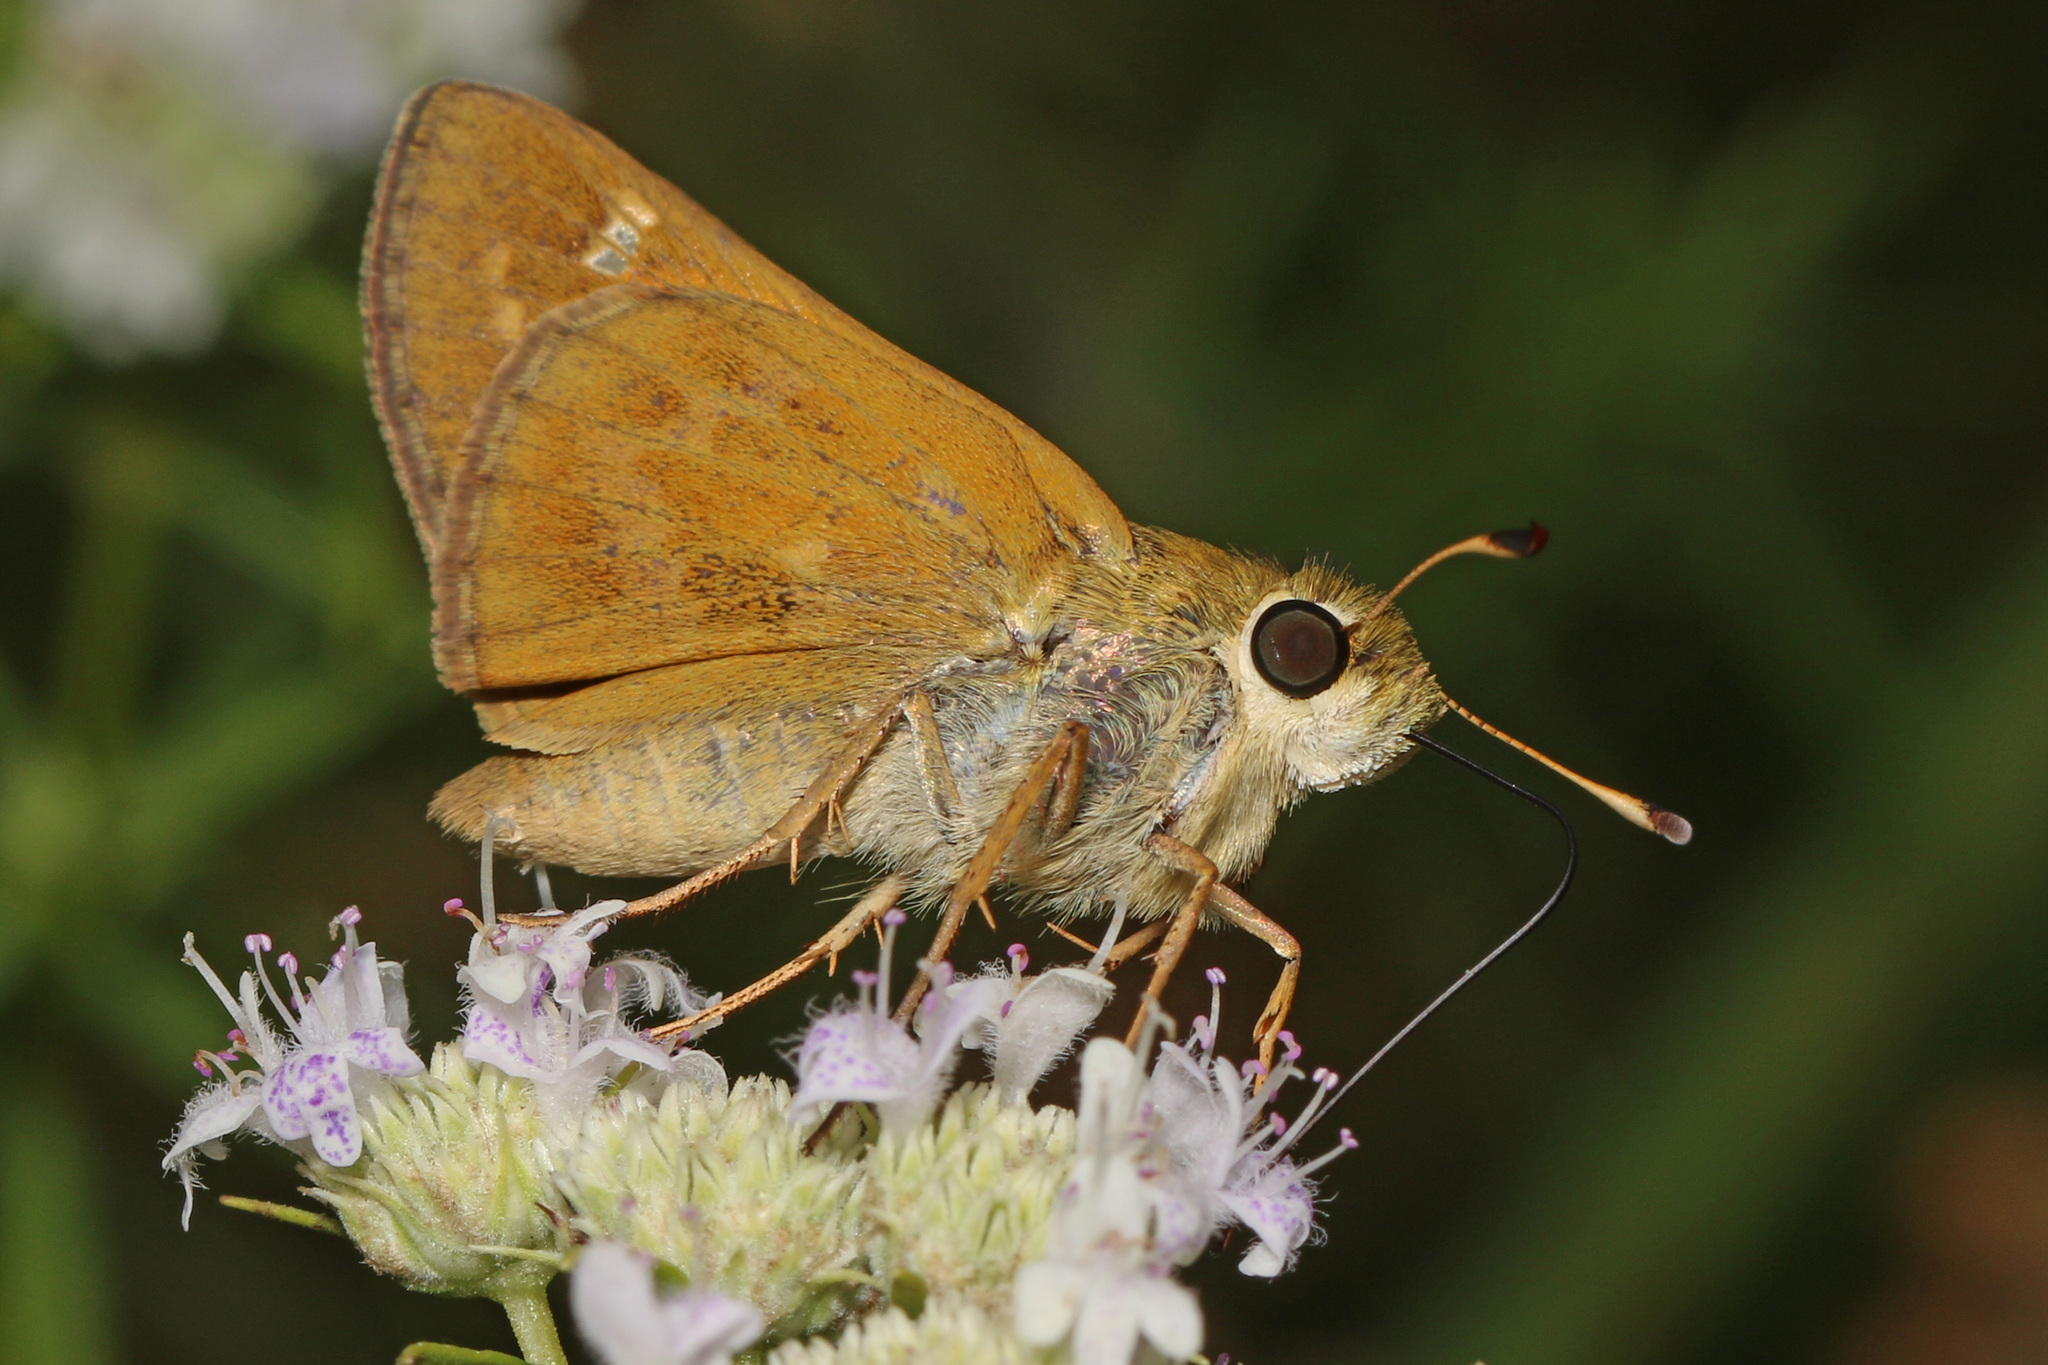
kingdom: Animalia
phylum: Arthropoda
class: Insecta
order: Lepidoptera
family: Hesperiidae
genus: Atalopedes
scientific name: Atalopedes
